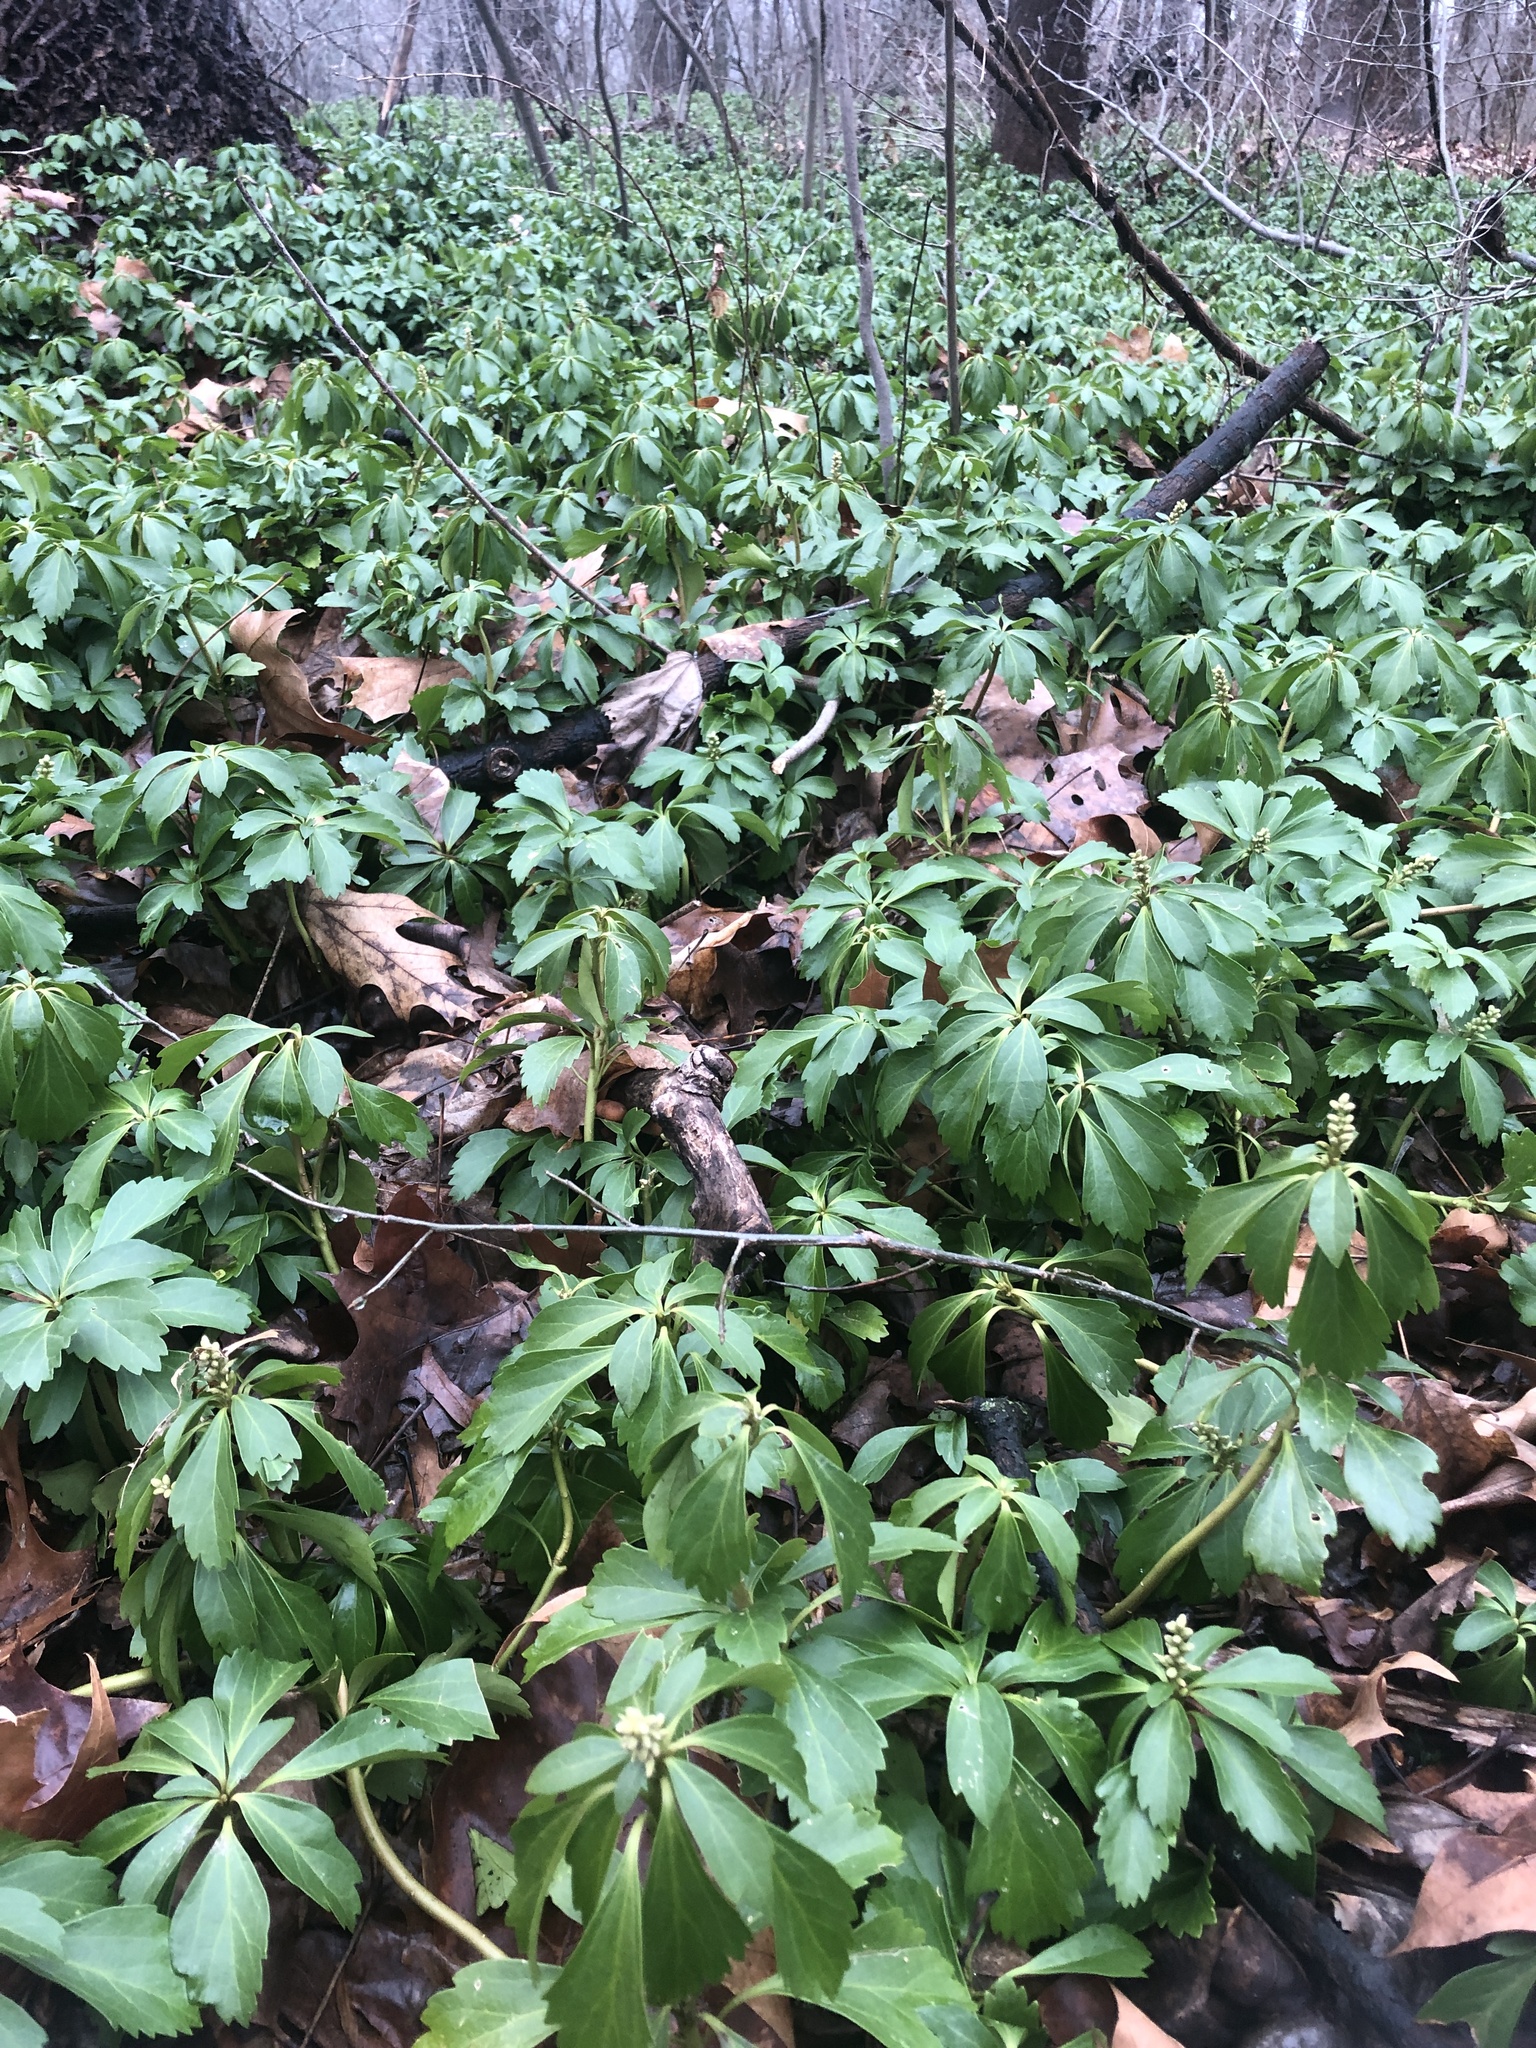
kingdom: Plantae
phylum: Tracheophyta
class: Magnoliopsida
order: Buxales
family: Buxaceae
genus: Pachysandra
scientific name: Pachysandra terminalis
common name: Japanese pachysandra
